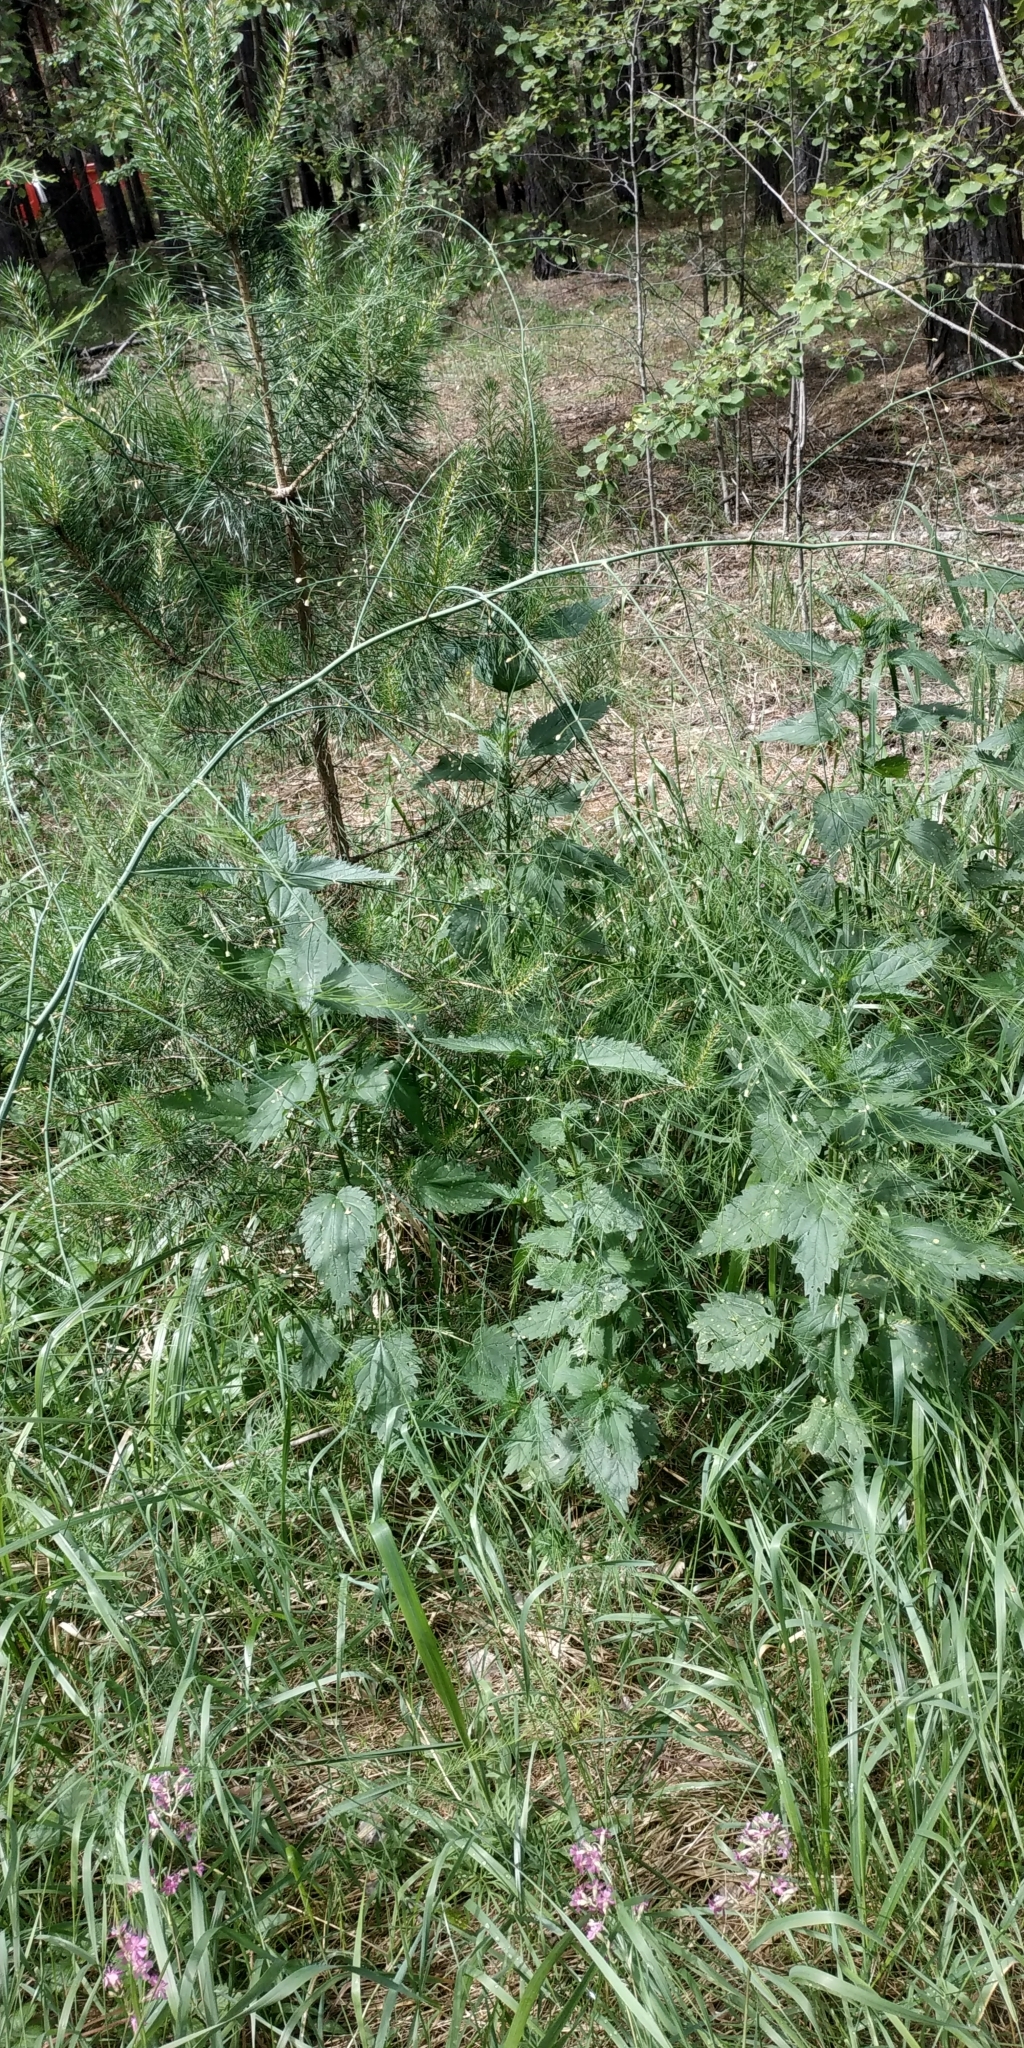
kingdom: Plantae
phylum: Tracheophyta
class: Liliopsida
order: Asparagales
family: Asparagaceae
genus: Asparagus
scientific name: Asparagus officinalis
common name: Garden asparagus
